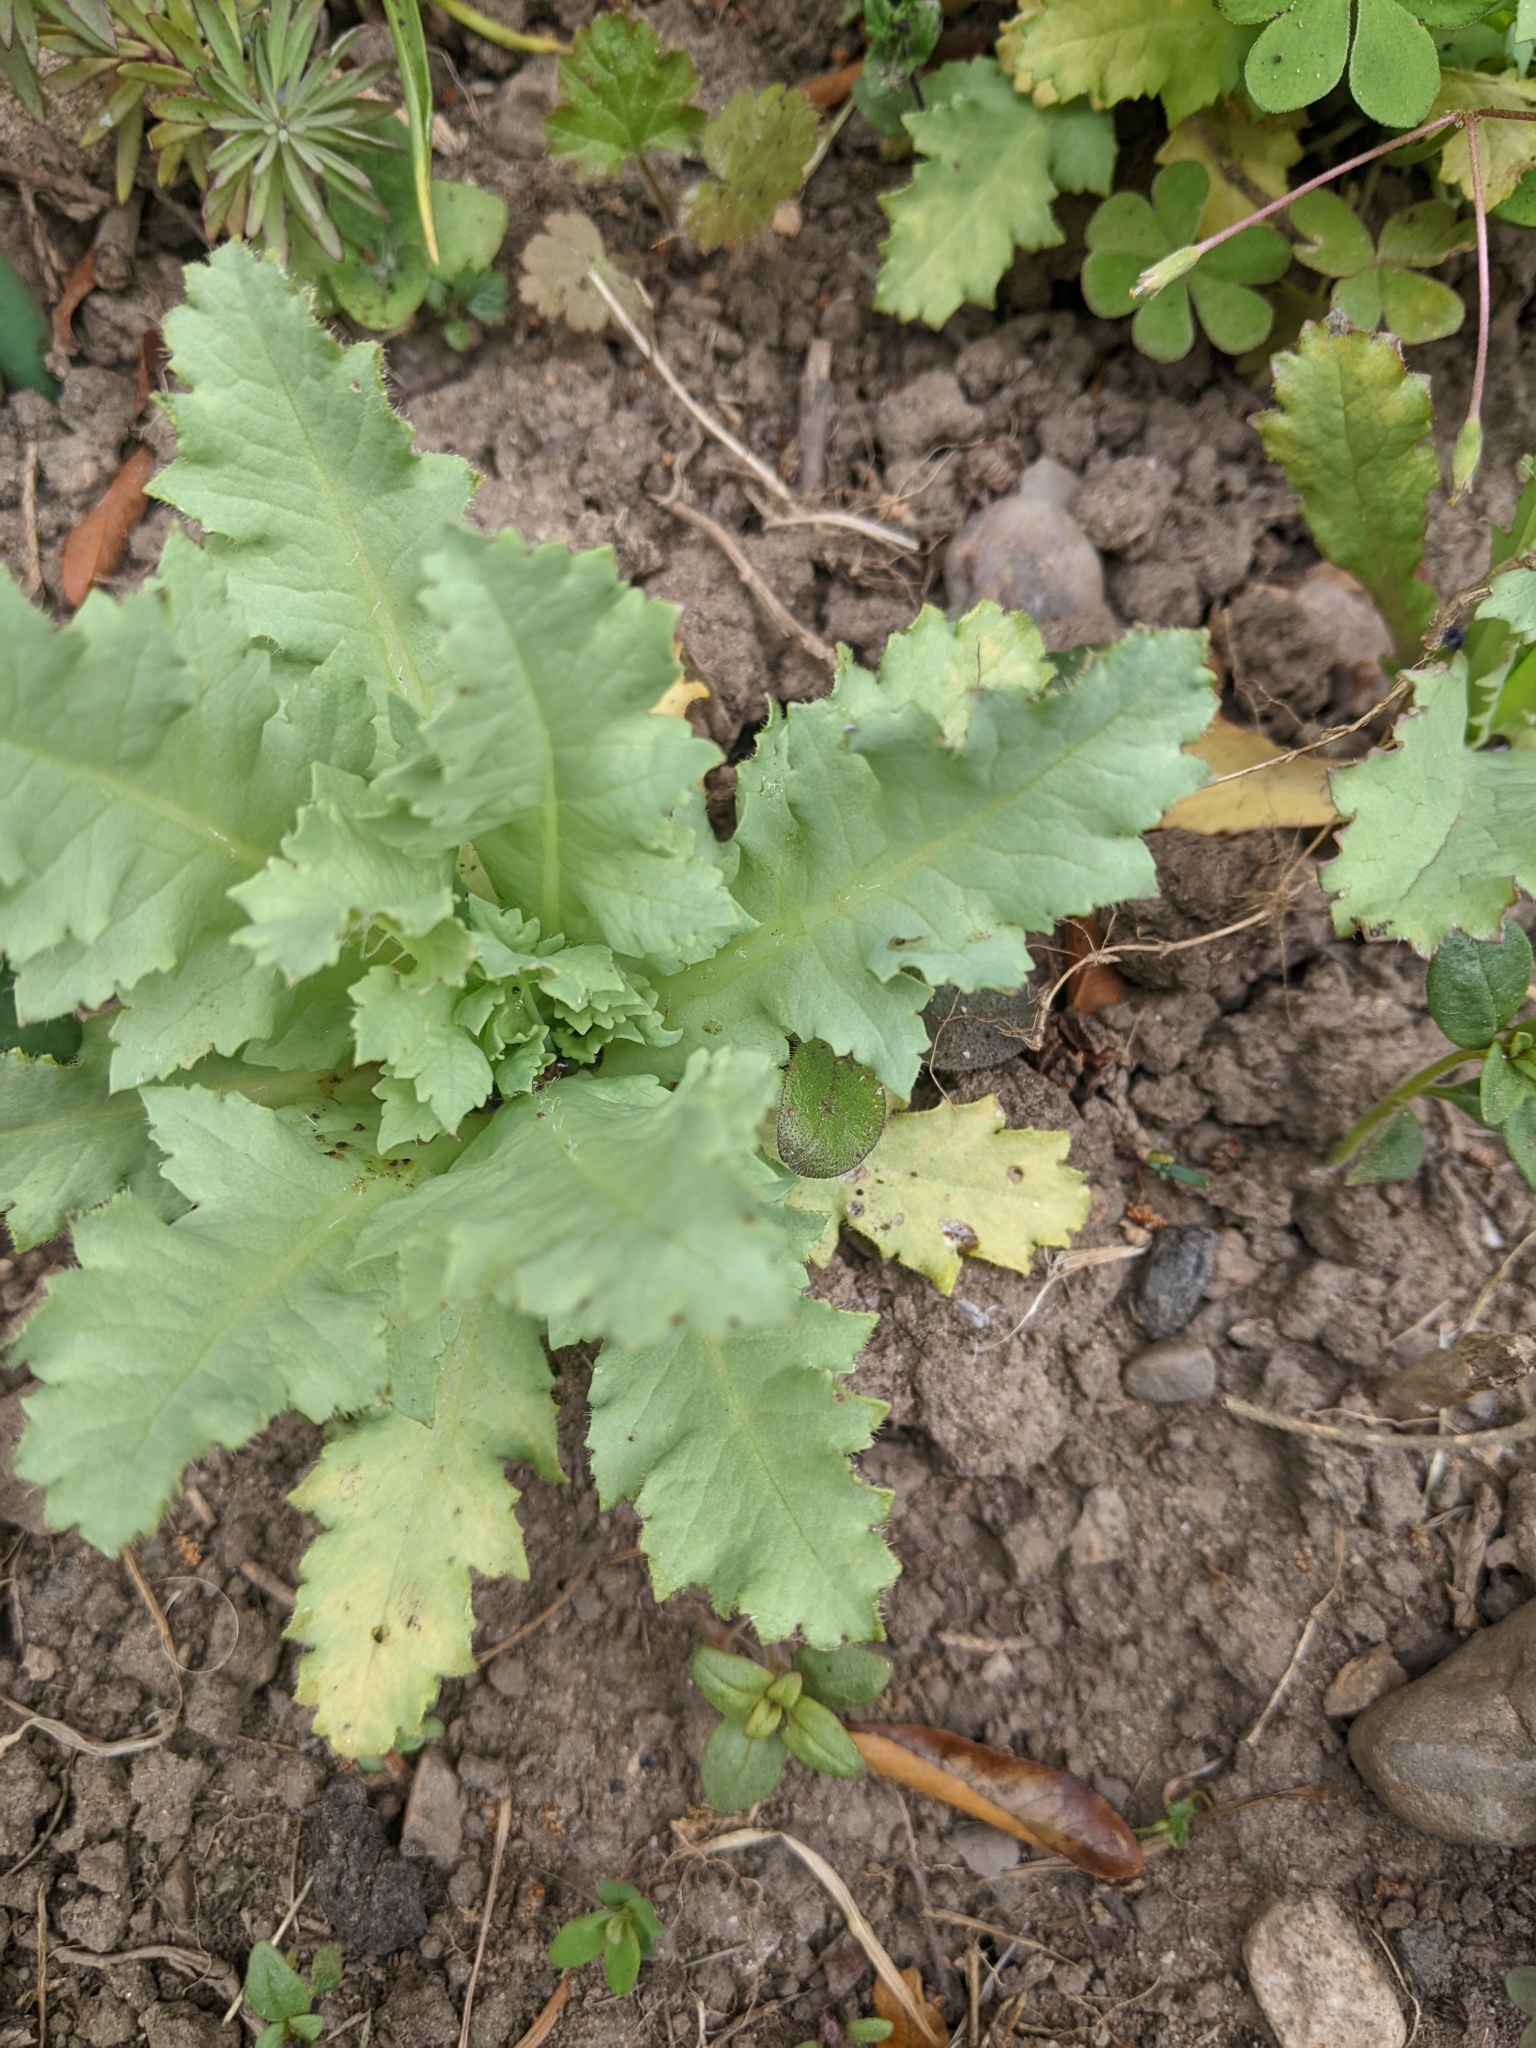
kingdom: Plantae
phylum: Tracheophyta
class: Magnoliopsida
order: Ranunculales
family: Papaveraceae
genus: Papaver
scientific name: Papaver somniferum
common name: Opium poppy
